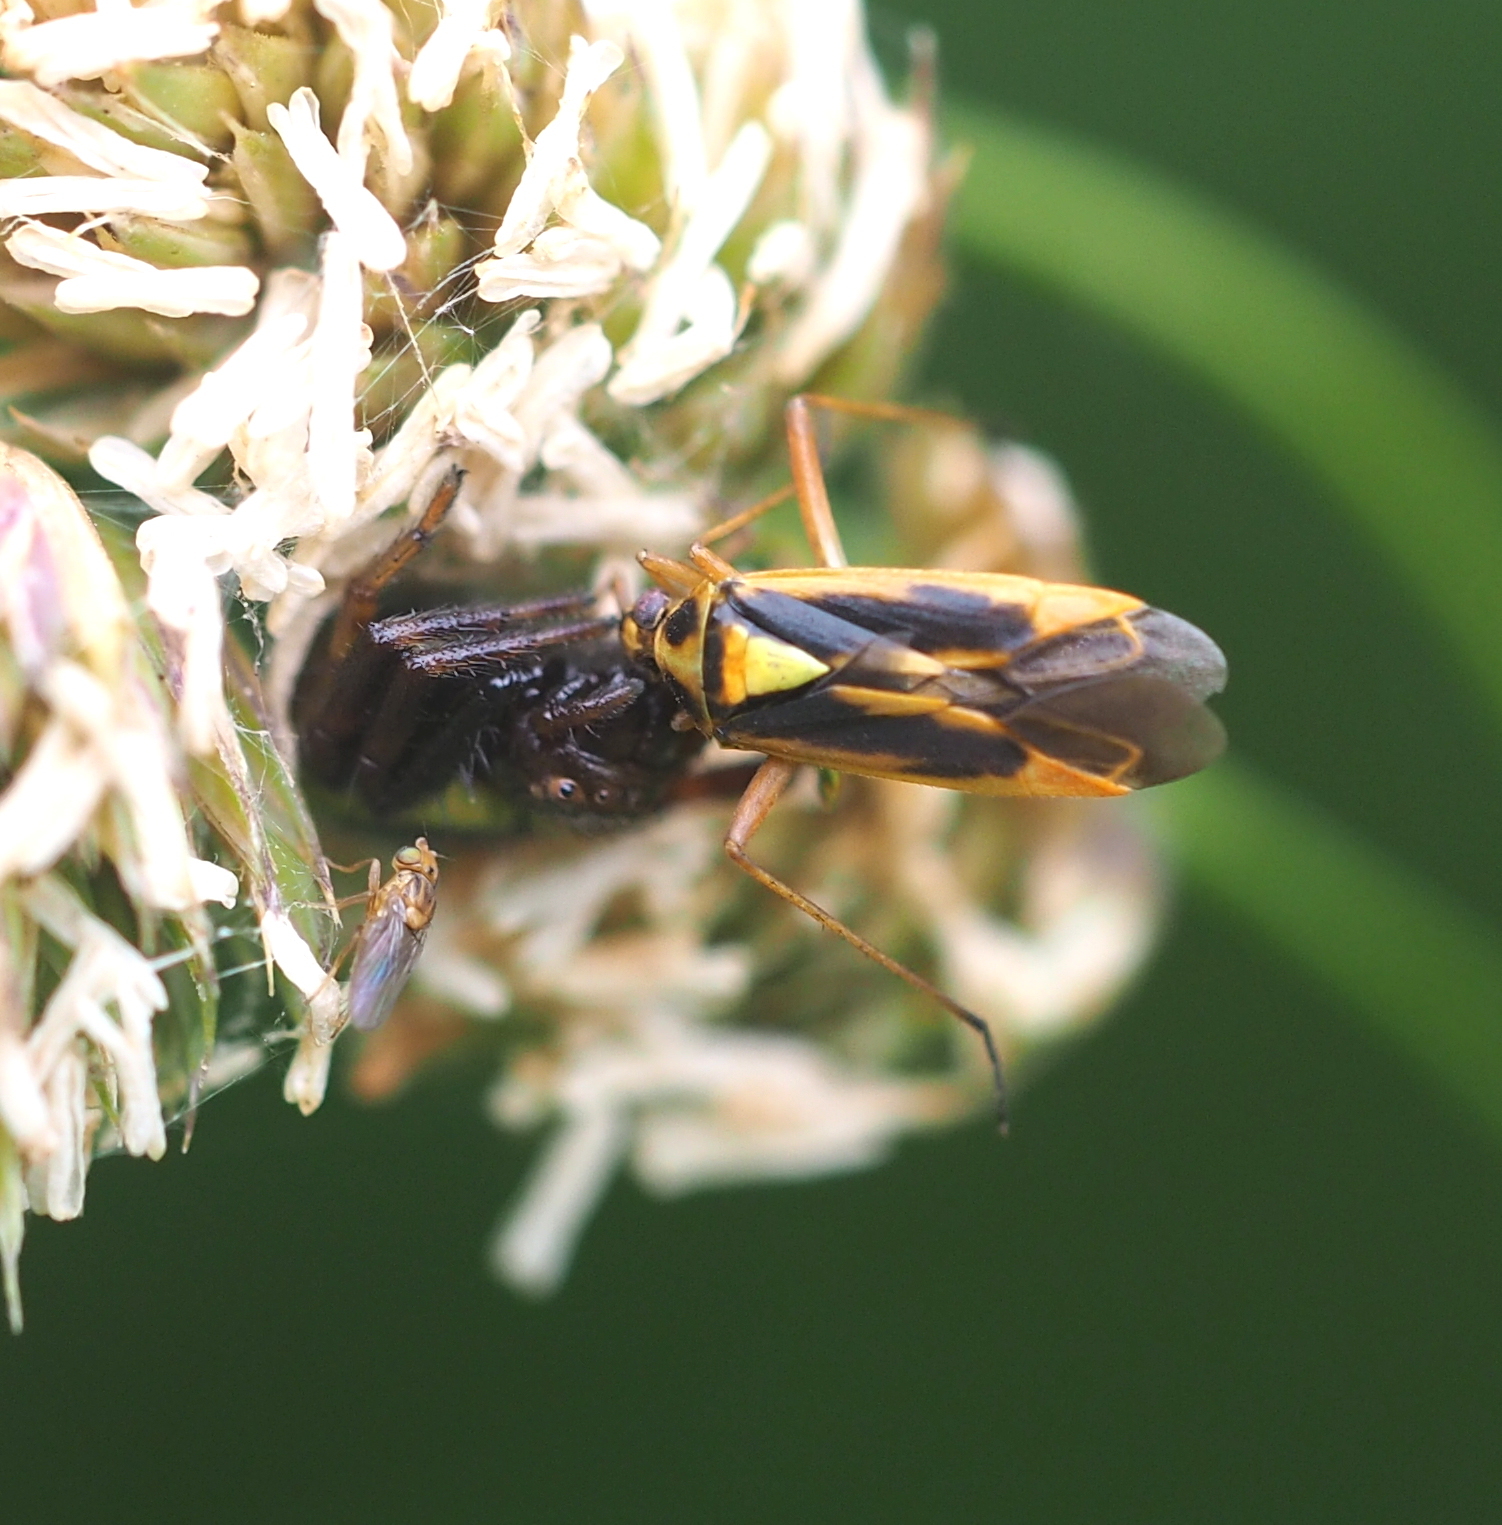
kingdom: Animalia
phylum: Arthropoda
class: Arachnida
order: Araneae
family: Thomisidae
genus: Synema
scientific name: Synema globosum
